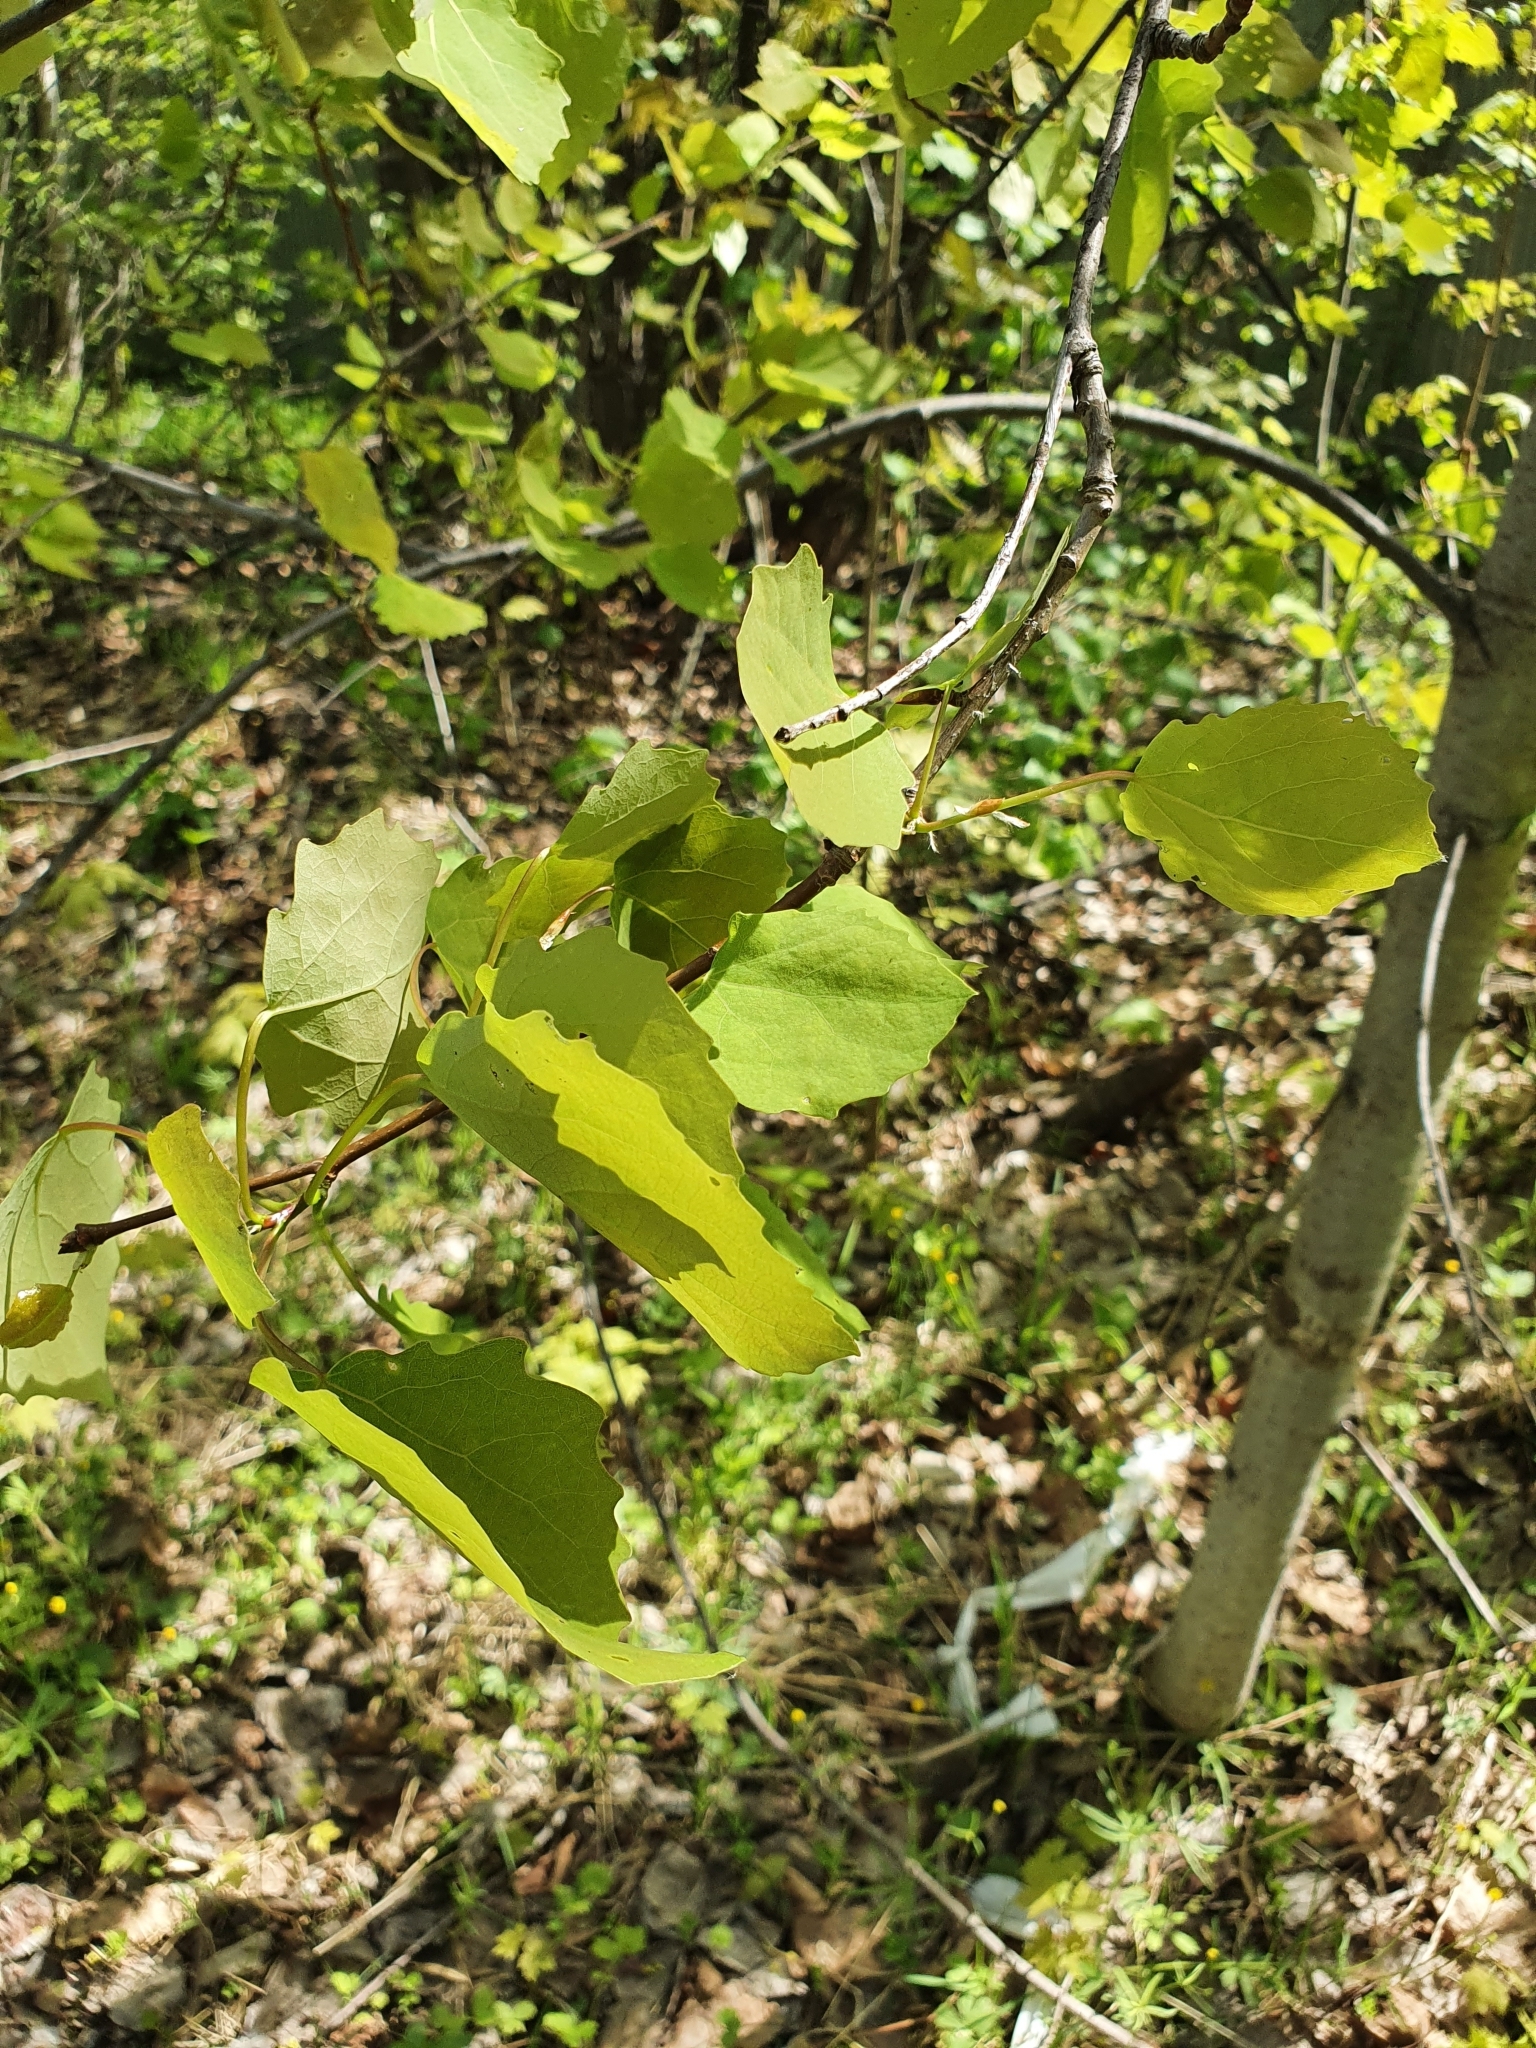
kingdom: Plantae
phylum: Tracheophyta
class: Magnoliopsida
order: Malpighiales
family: Salicaceae
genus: Populus
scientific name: Populus tremula
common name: European aspen
